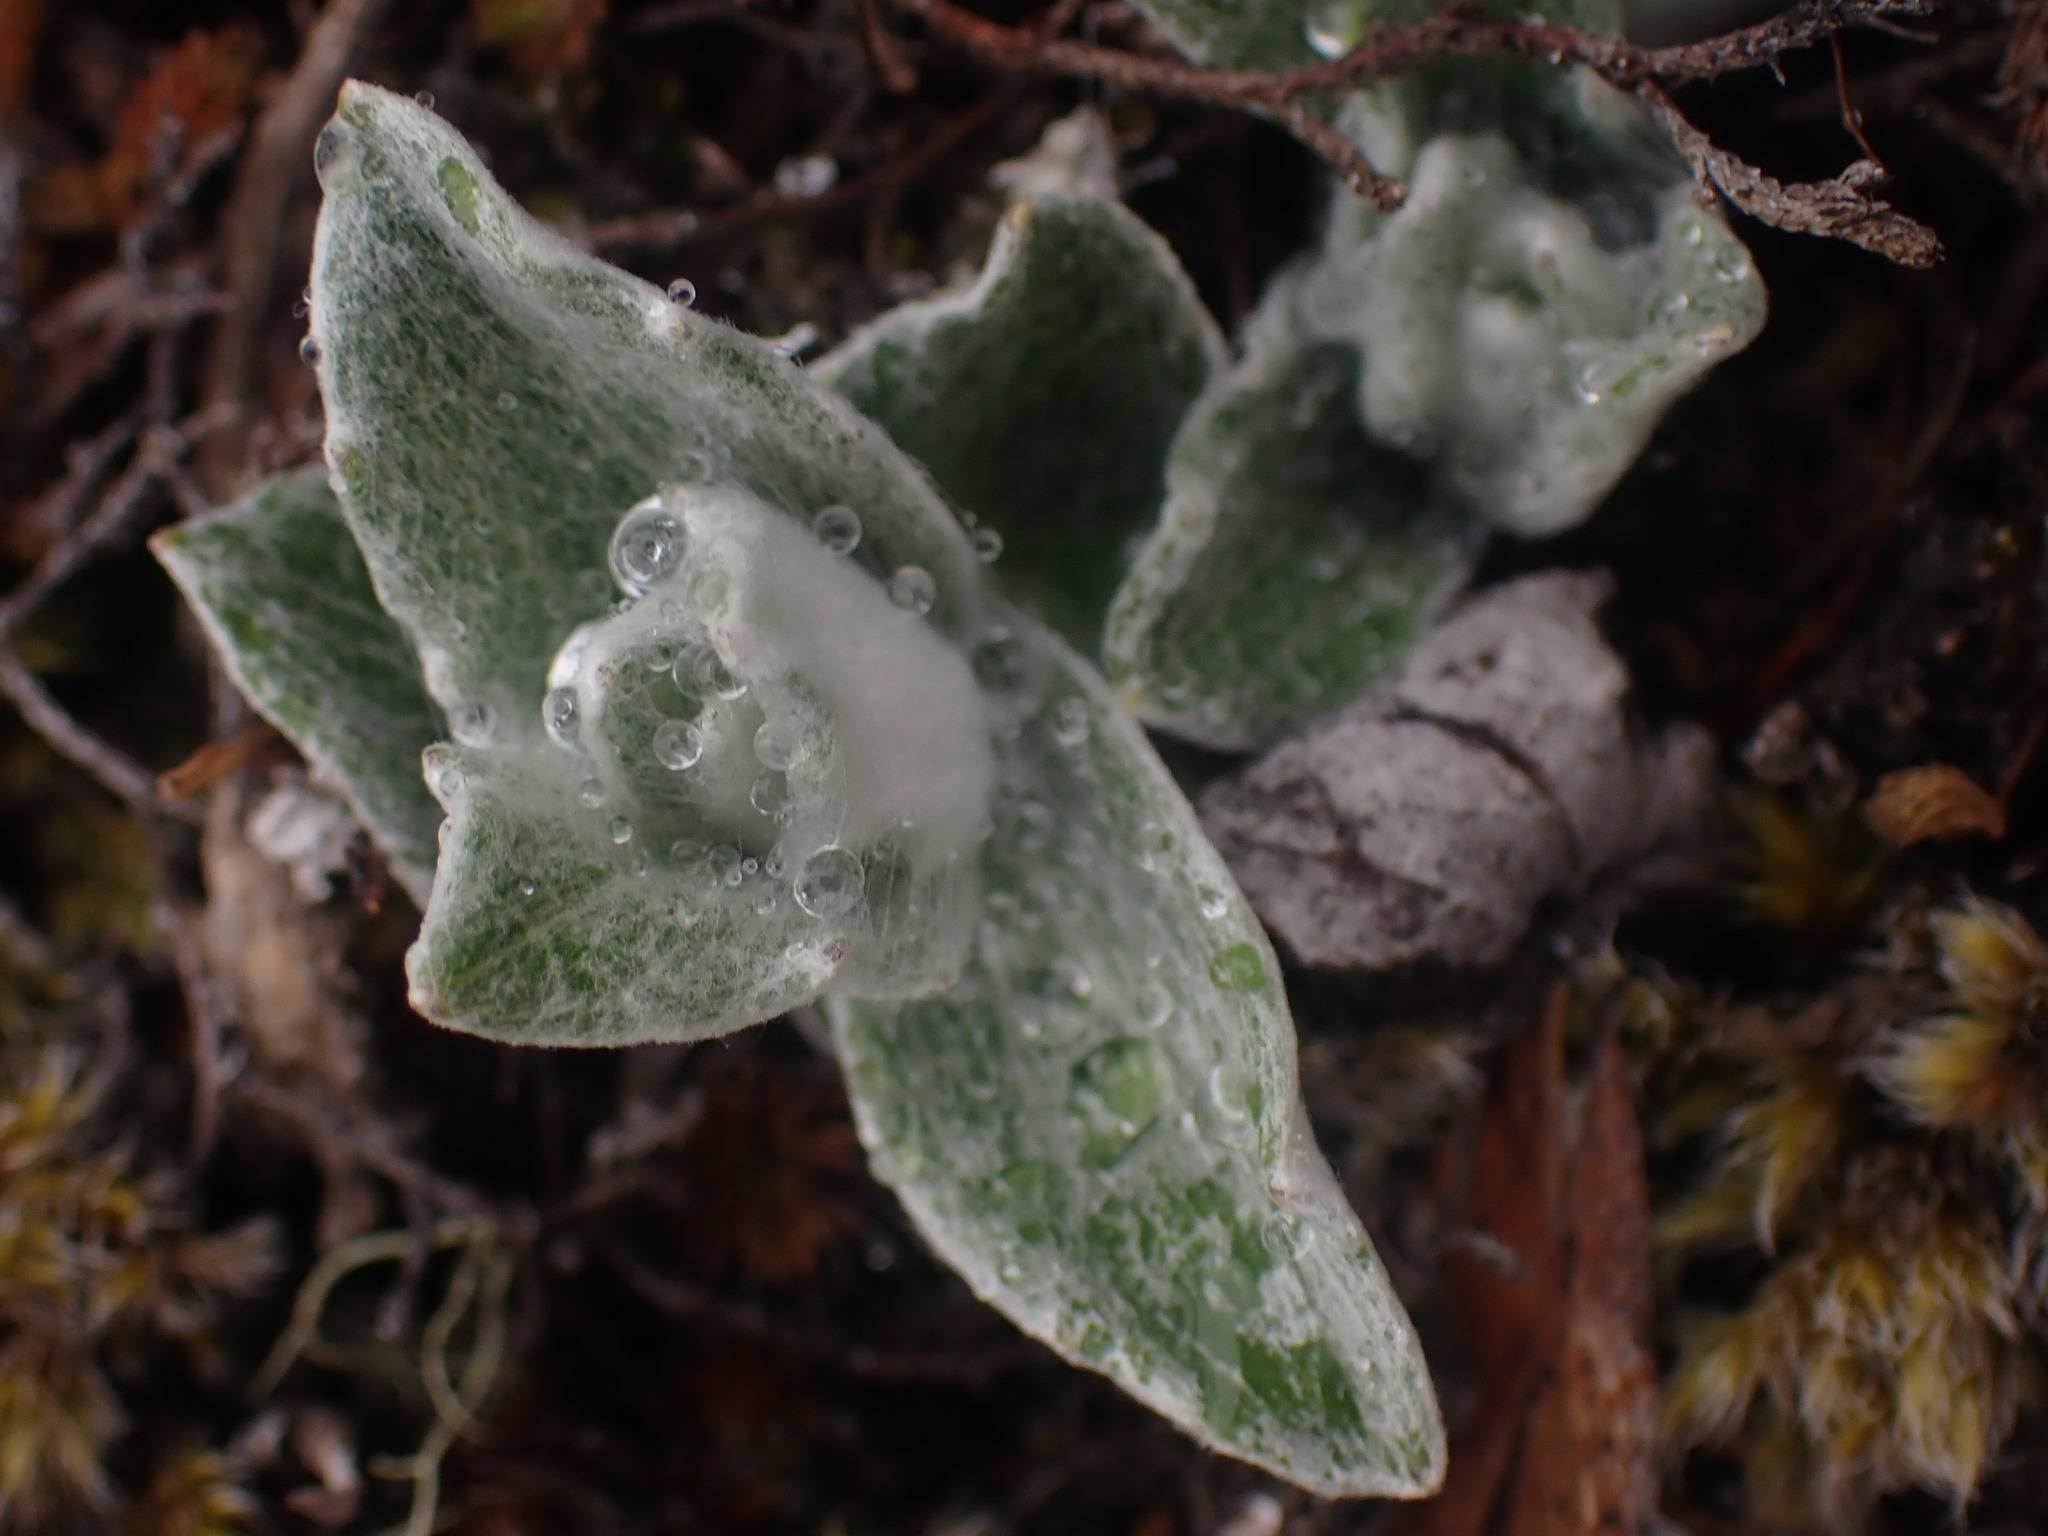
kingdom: Plantae
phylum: Tracheophyta
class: Magnoliopsida
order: Asterales
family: Asteraceae
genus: Luina
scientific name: Luina hypoleuca
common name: Little-leaved luina
